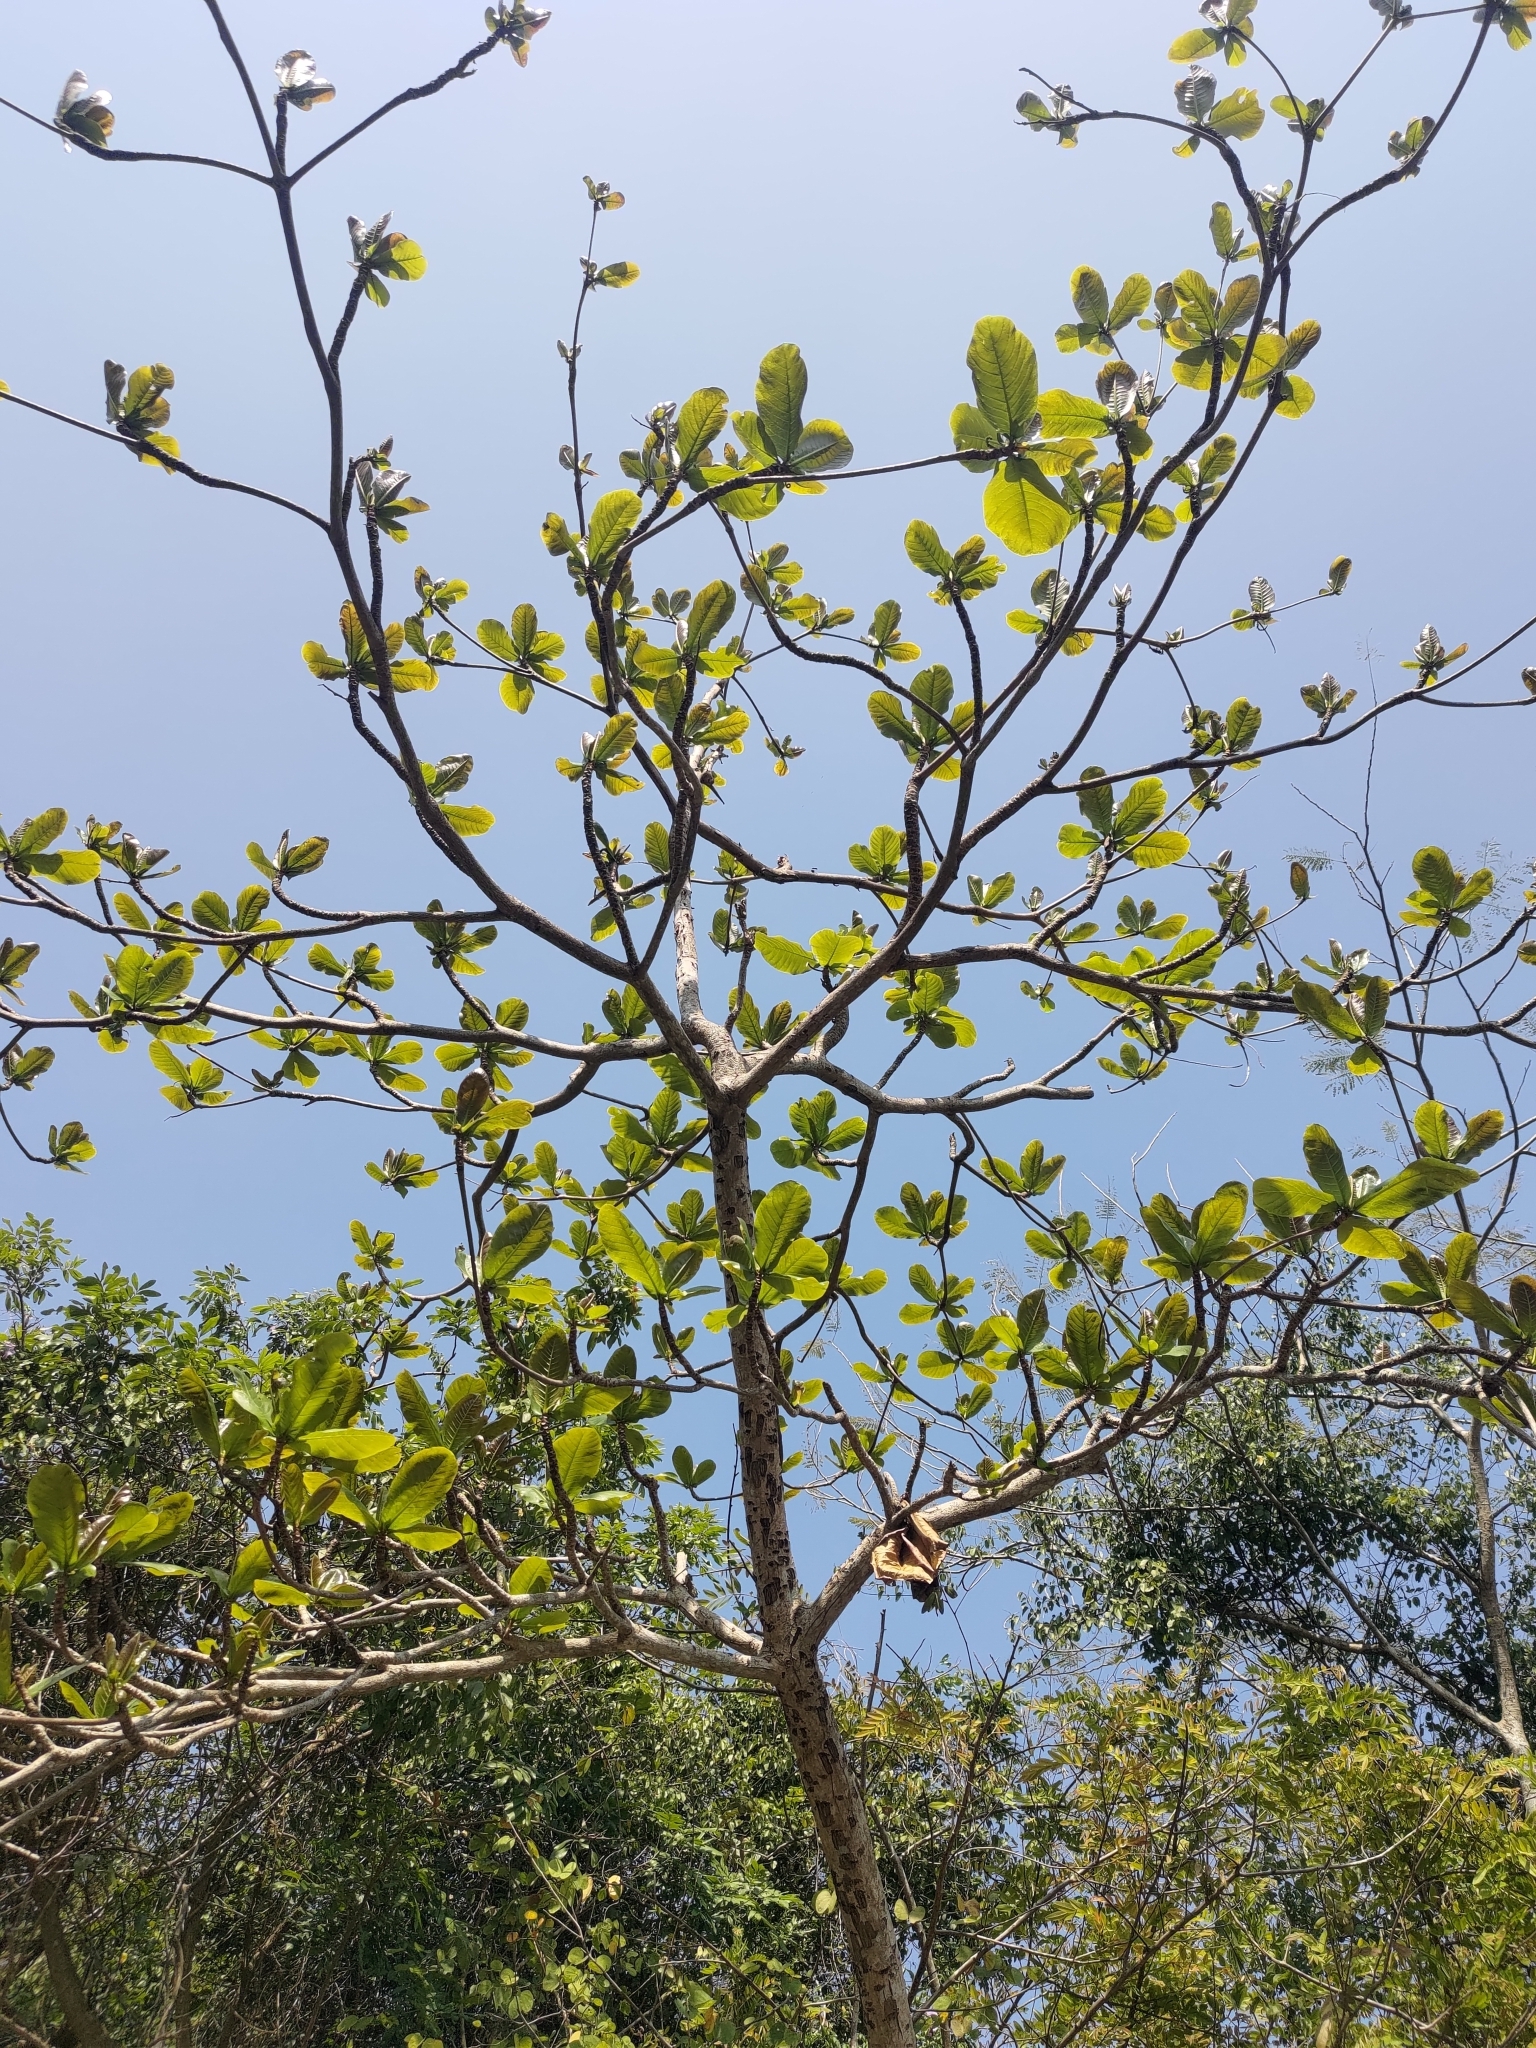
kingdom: Plantae
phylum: Tracheophyta
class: Magnoliopsida
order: Myrtales
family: Combretaceae
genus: Terminalia
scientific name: Terminalia catappa
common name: Tropical almond
